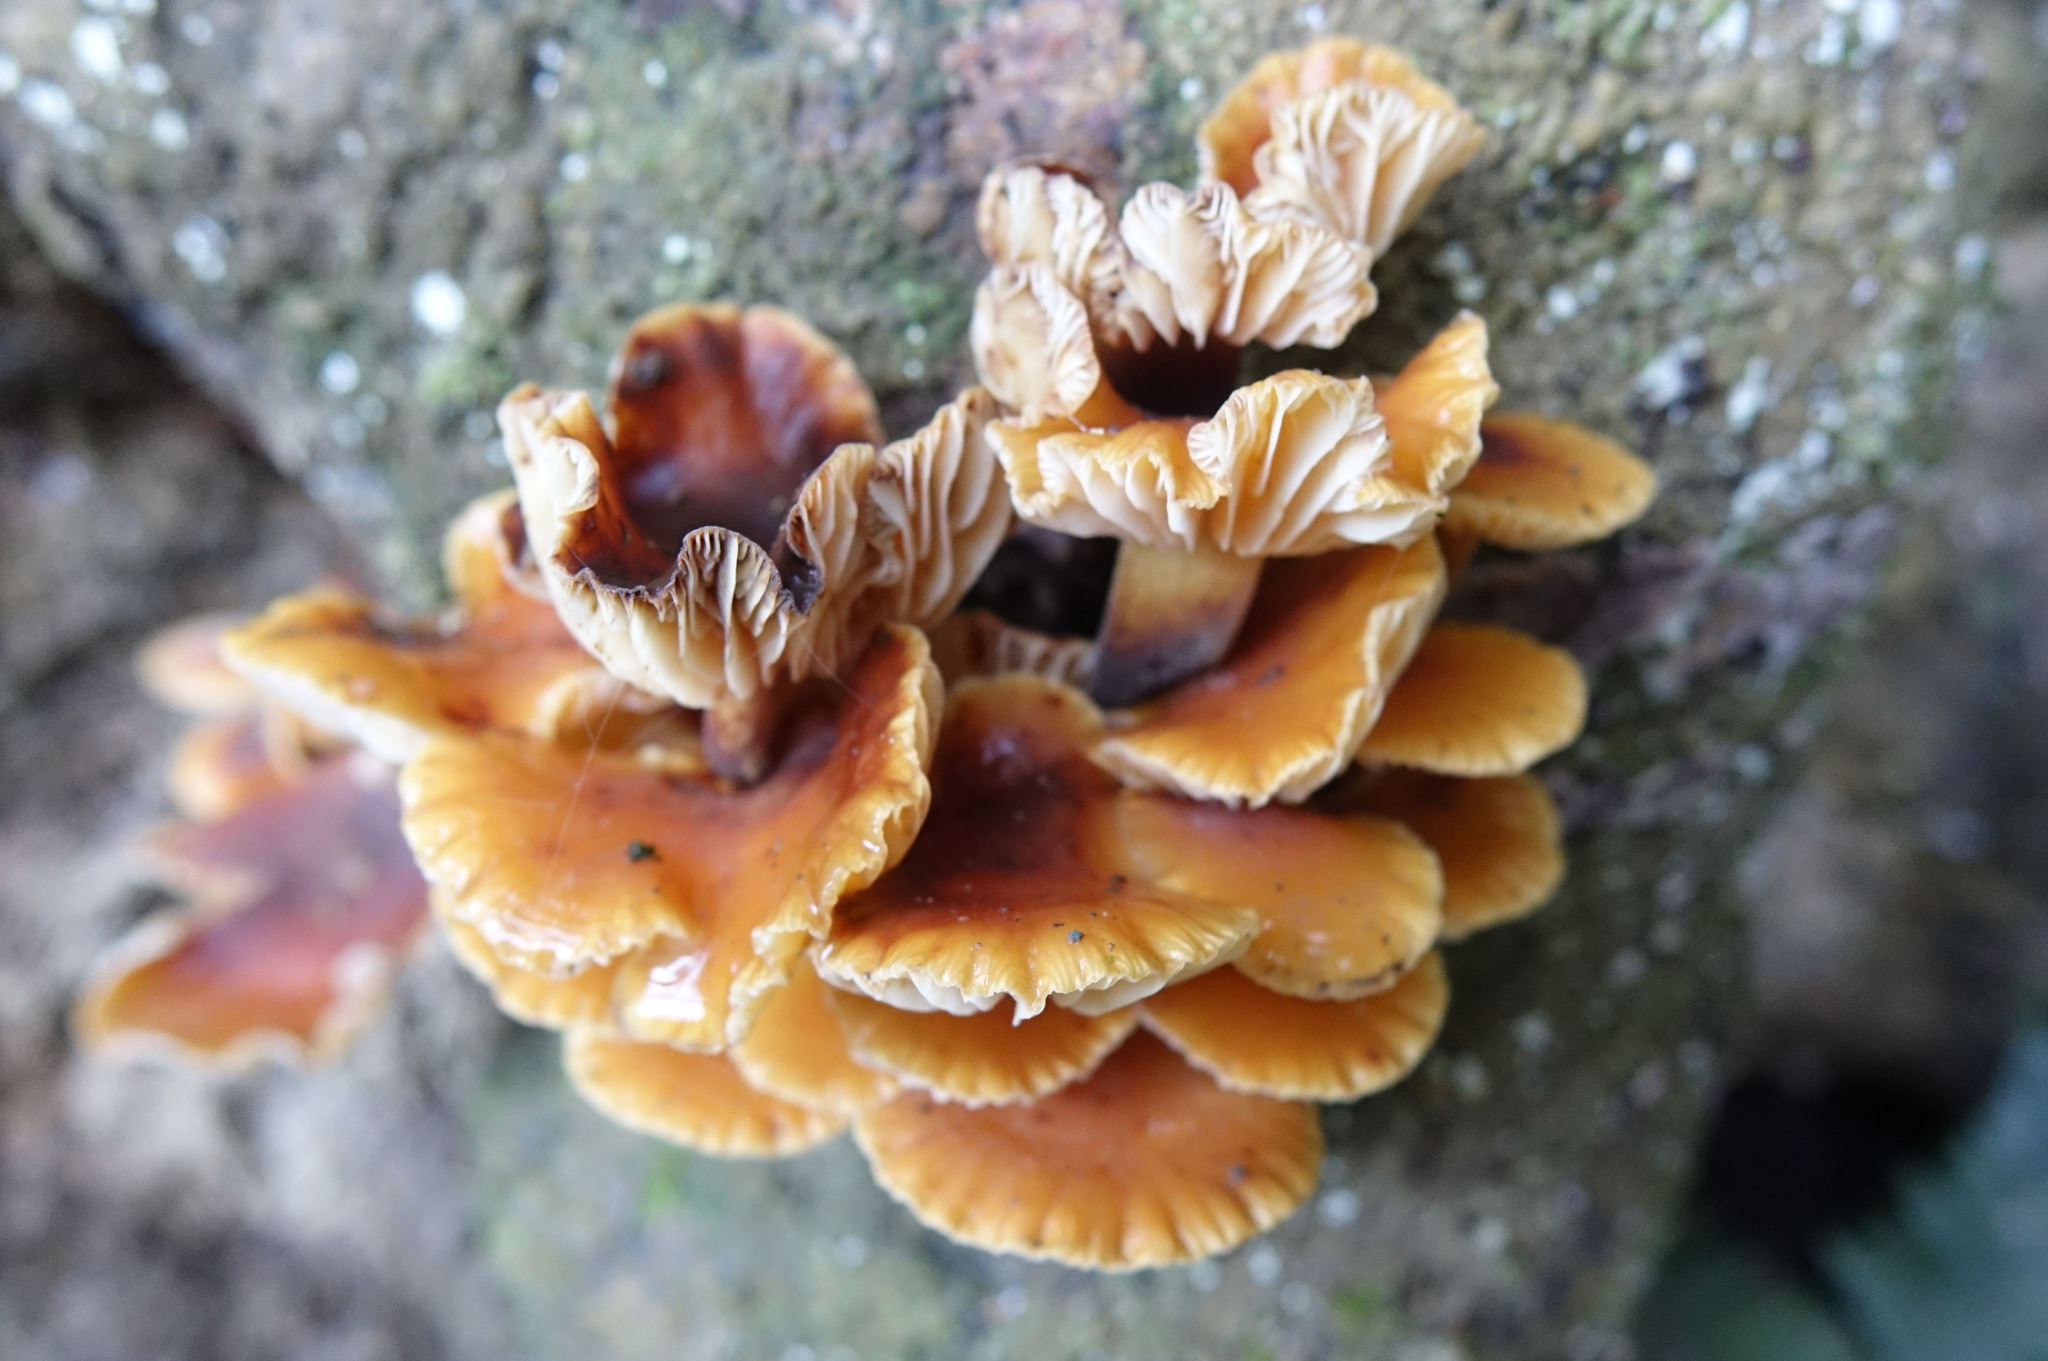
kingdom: Fungi
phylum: Basidiomycota
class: Agaricomycetes
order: Agaricales
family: Physalacriaceae
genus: Flammulina
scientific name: Flammulina velutipes
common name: Velvet shank
